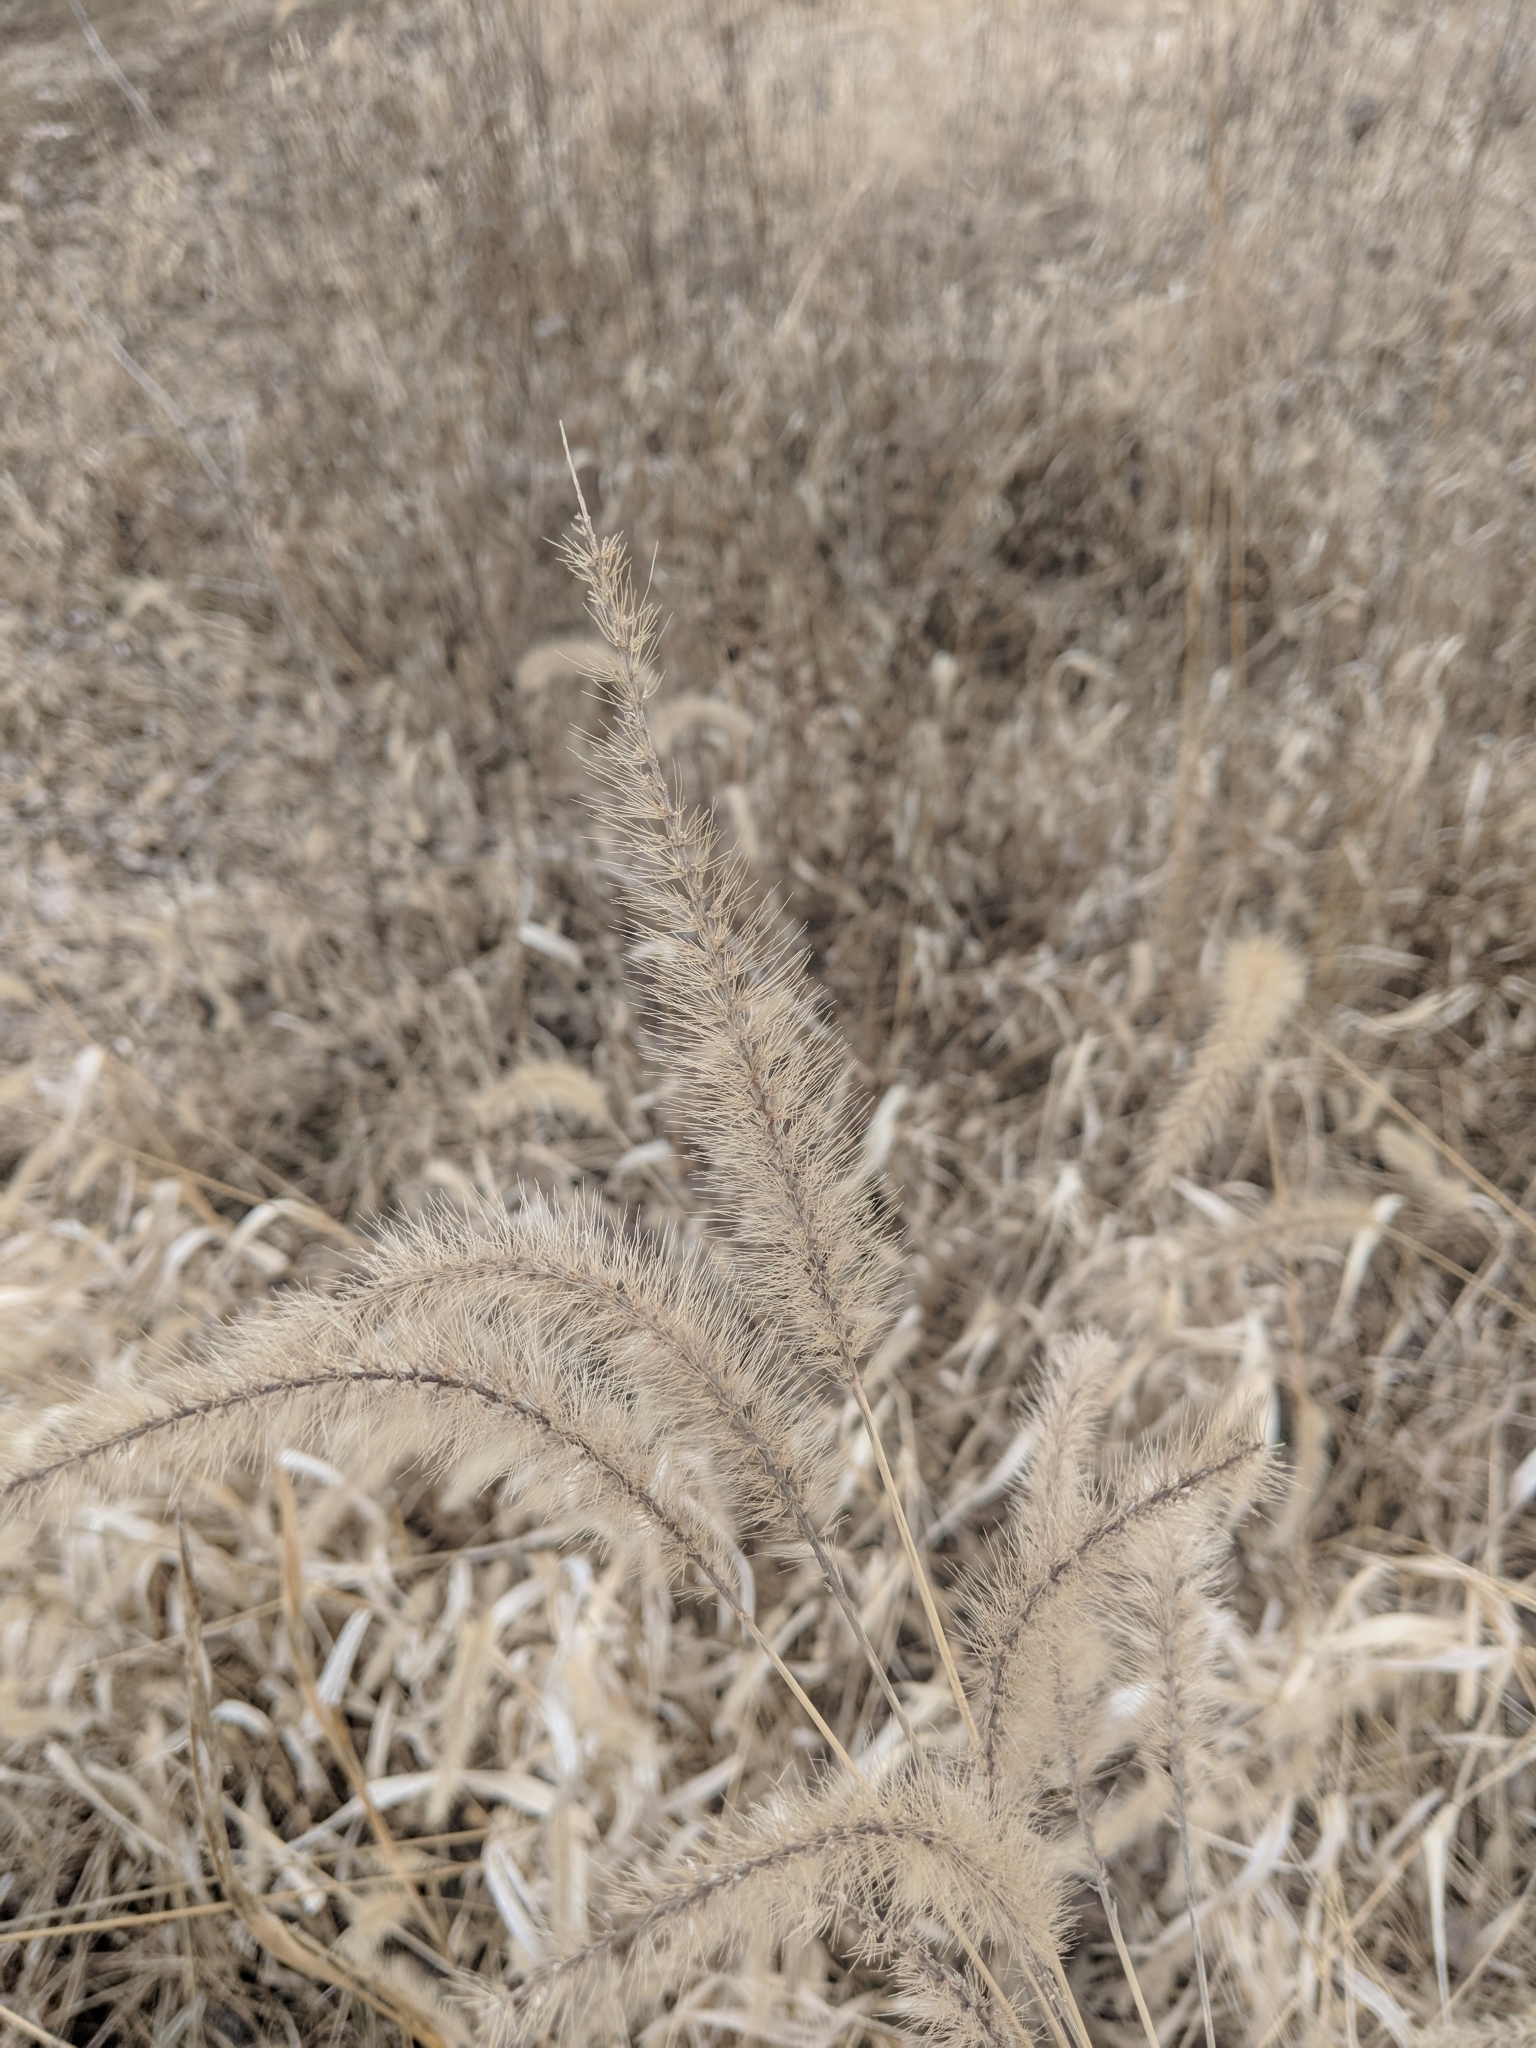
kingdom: Plantae
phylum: Tracheophyta
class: Liliopsida
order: Poales
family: Poaceae
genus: Setaria
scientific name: Setaria faberi
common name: Nodding bristle-grass
